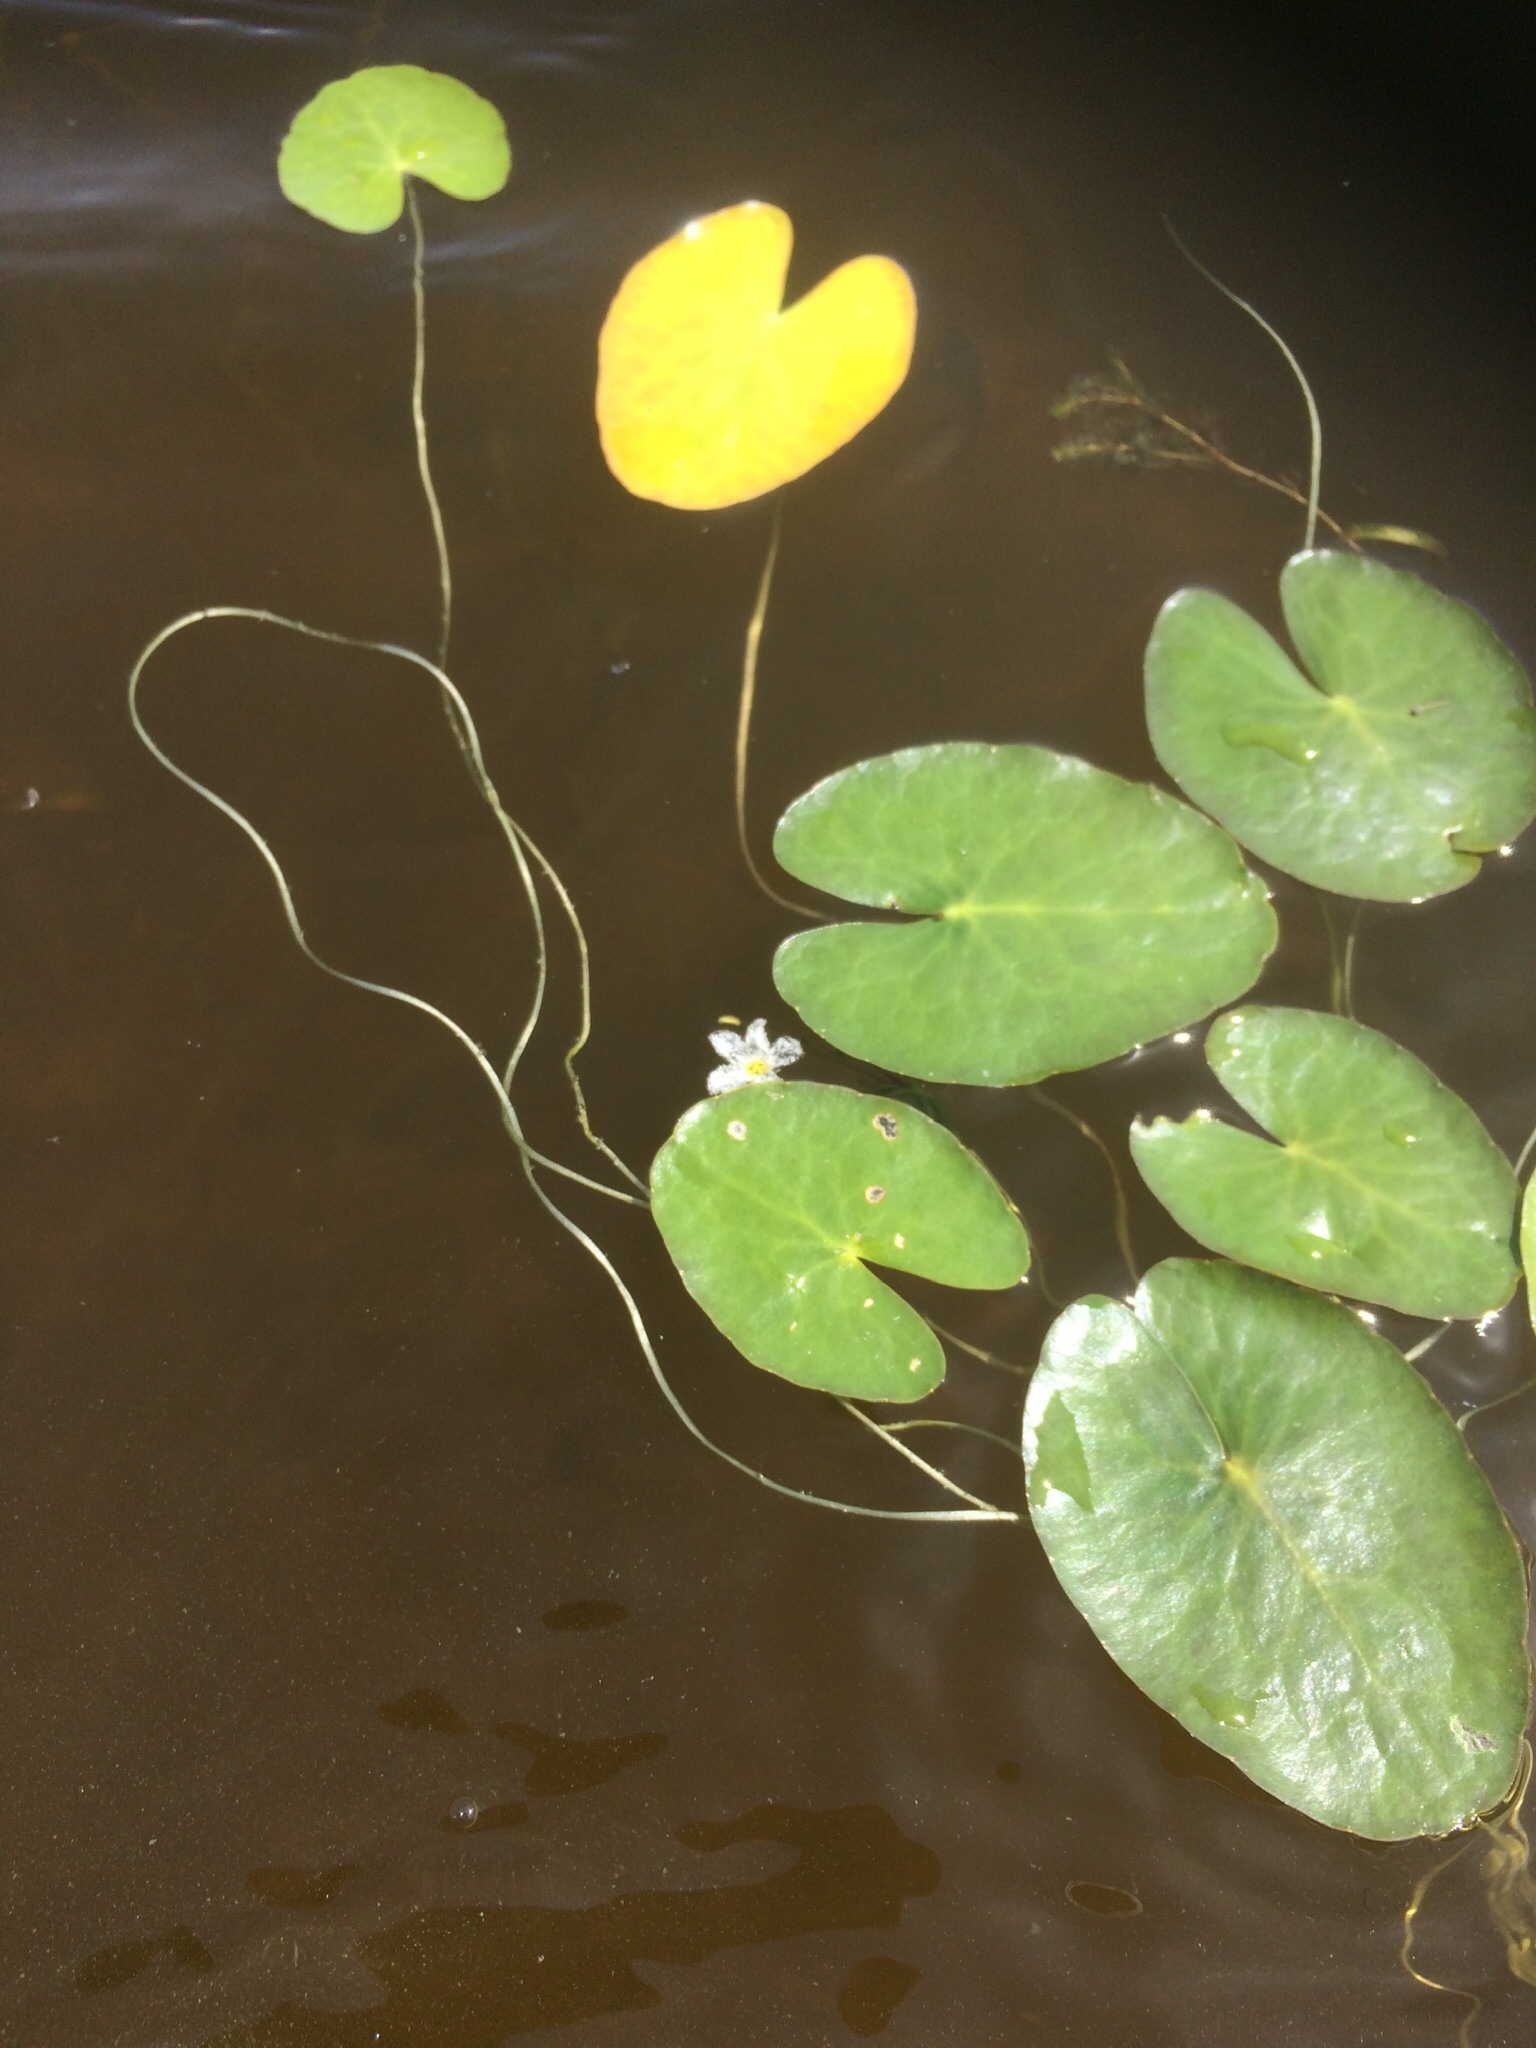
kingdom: Plantae
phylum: Tracheophyta
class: Magnoliopsida
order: Asterales
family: Menyanthaceae
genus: Nymphoides
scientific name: Nymphoides cordata
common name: Eight-angled floatingheart
